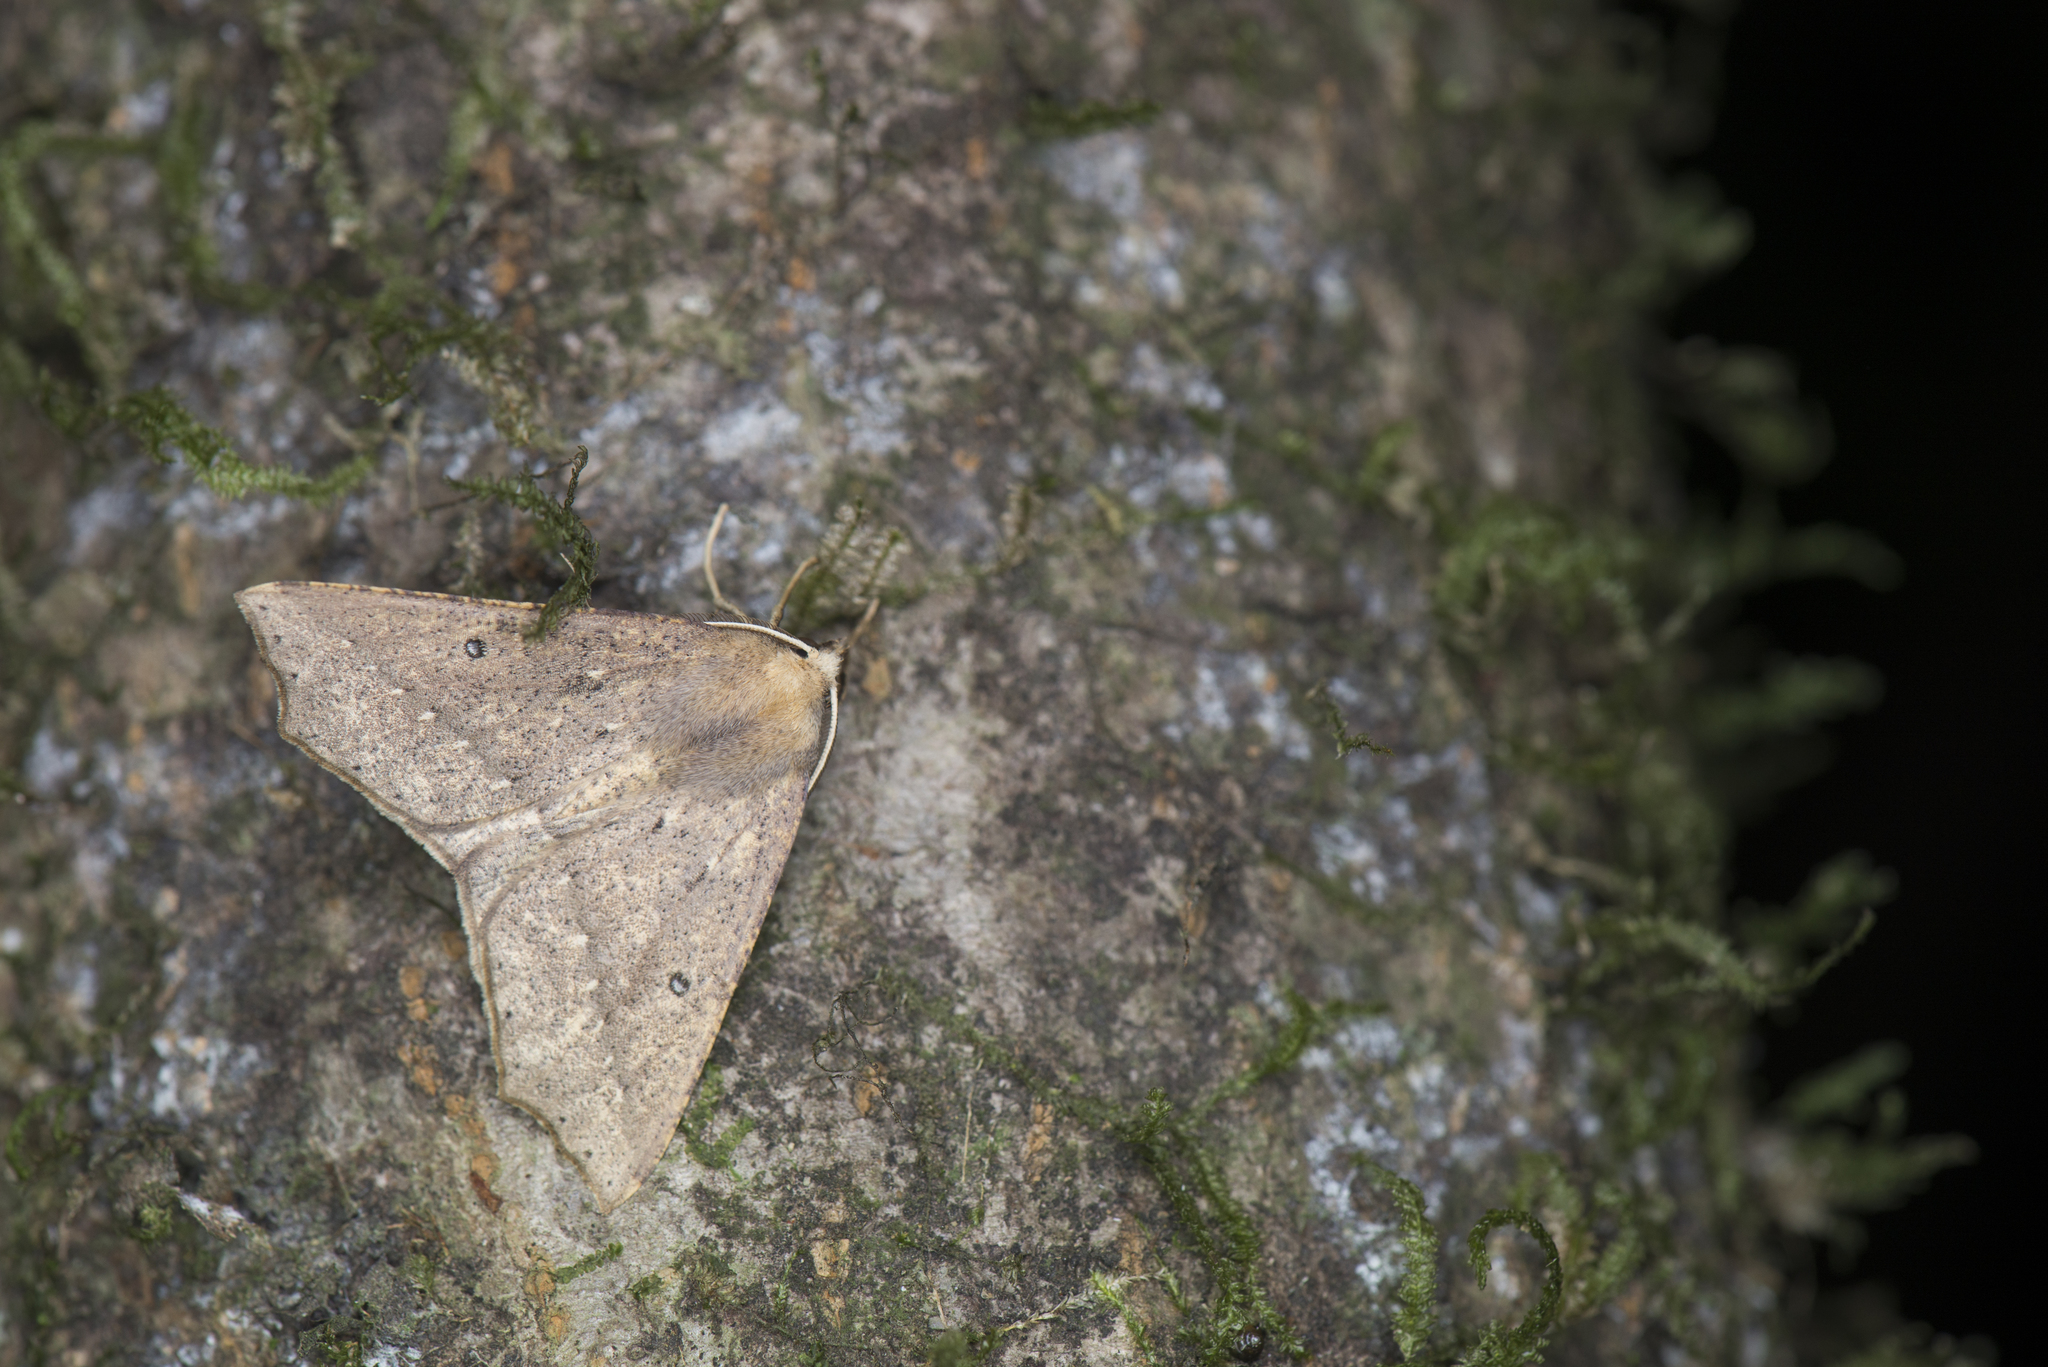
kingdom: Animalia
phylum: Arthropoda
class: Insecta
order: Lepidoptera
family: Geometridae
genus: Odontopera
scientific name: Odontopera albiguttulata
